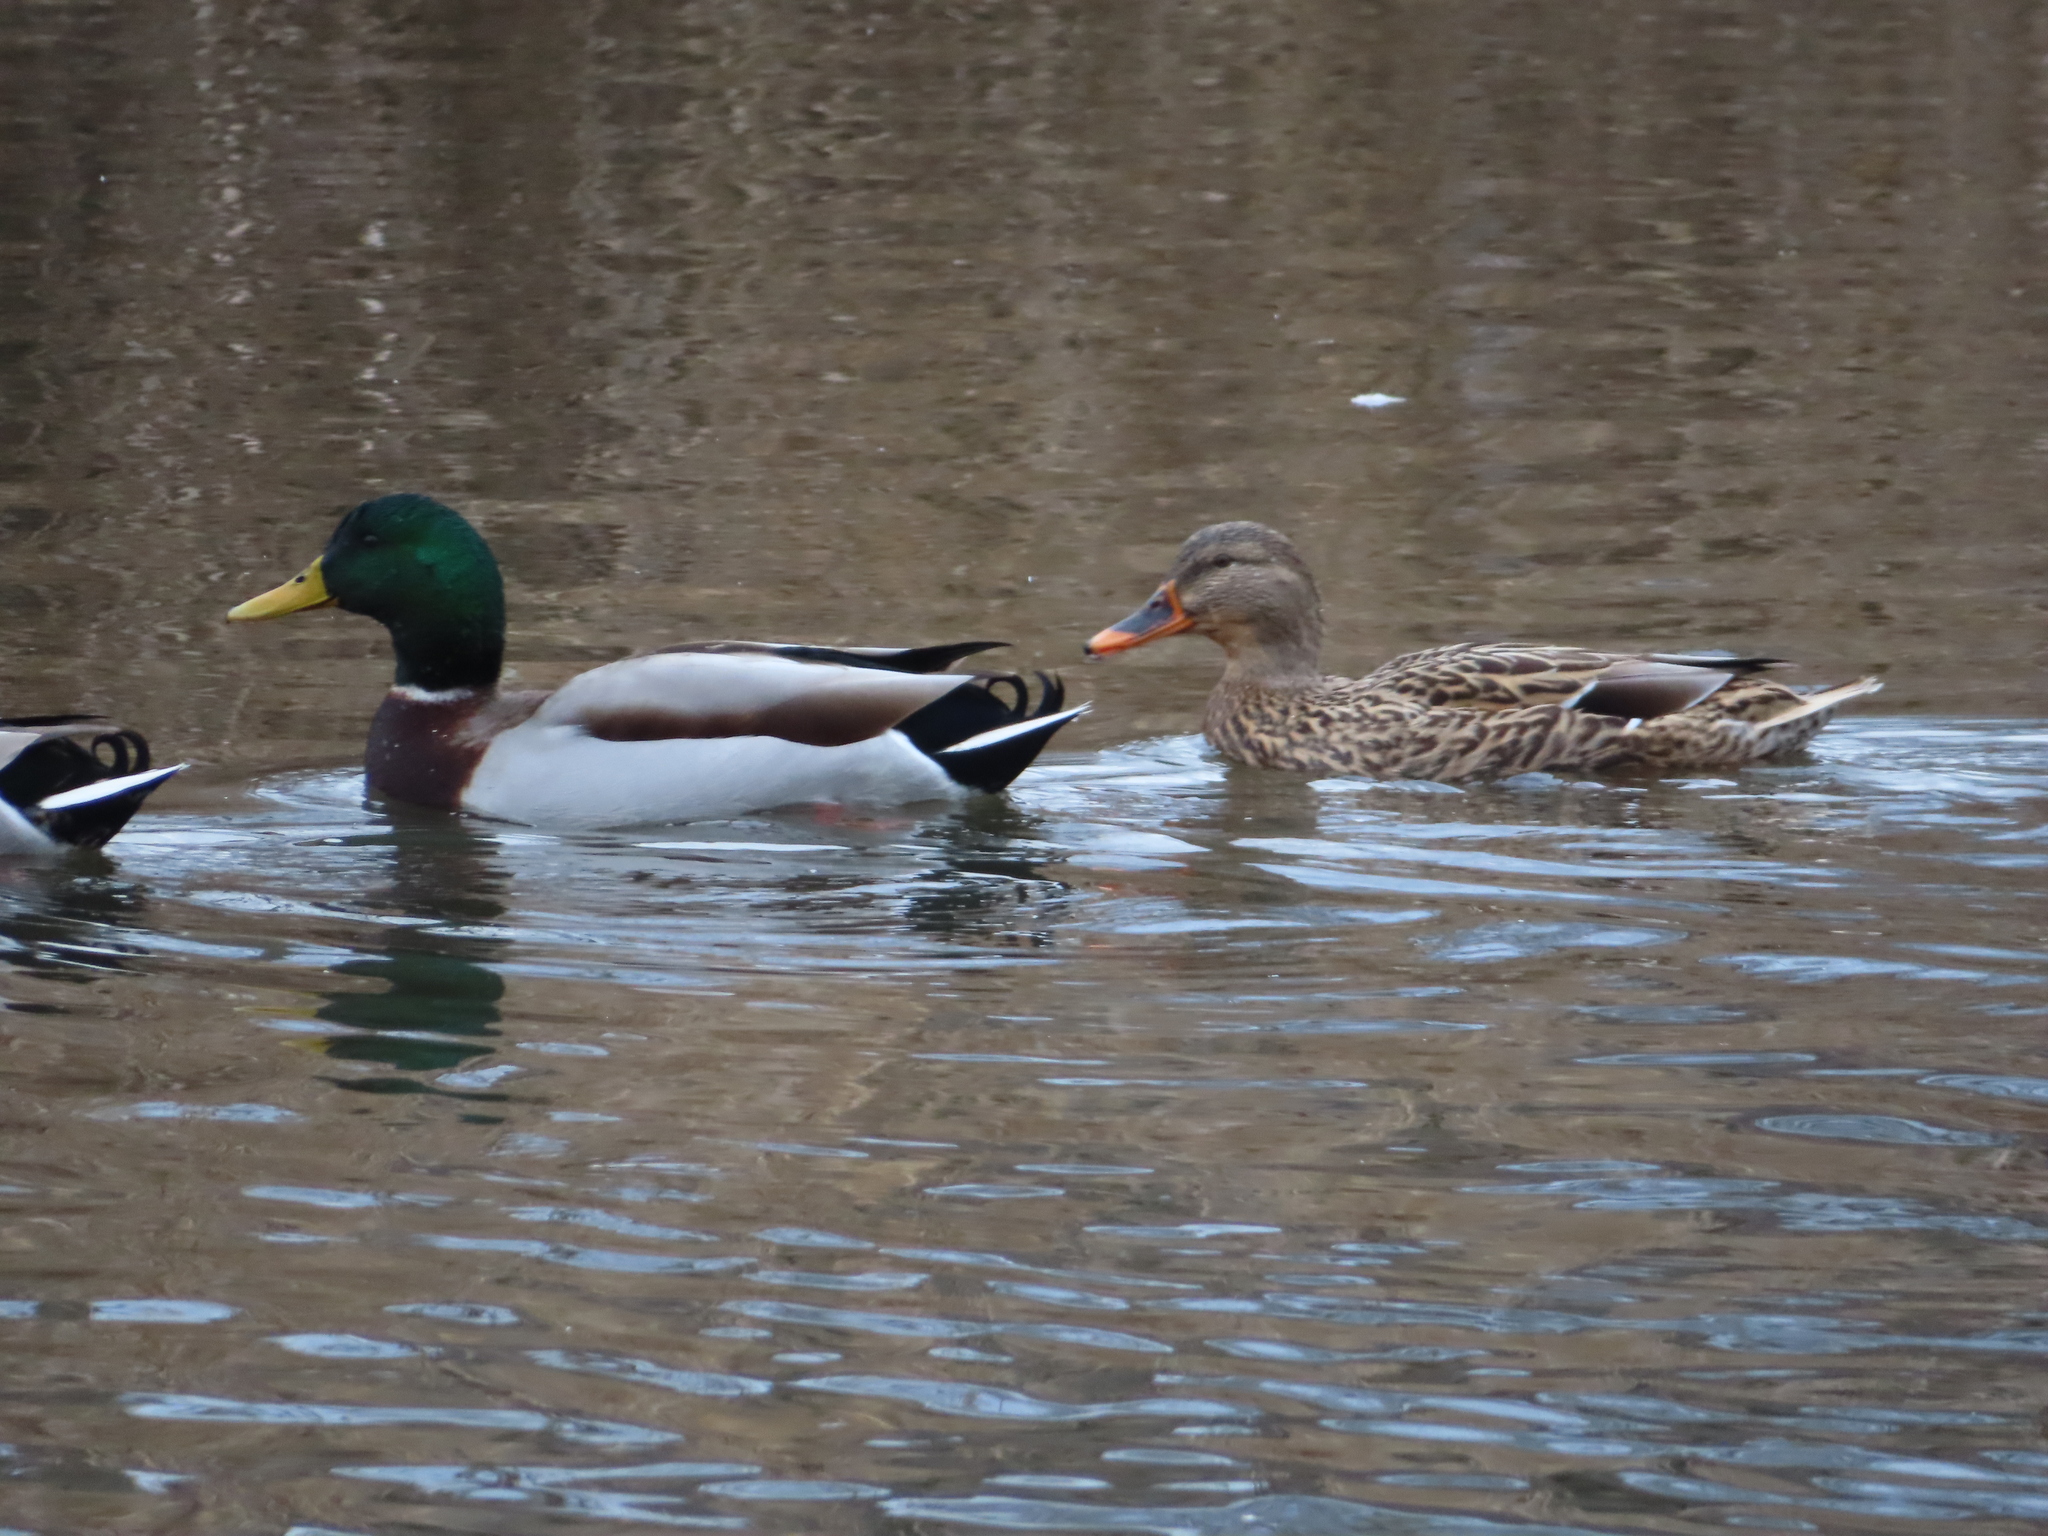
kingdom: Animalia
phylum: Chordata
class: Aves
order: Anseriformes
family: Anatidae
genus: Anas
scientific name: Anas platyrhynchos
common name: Mallard
